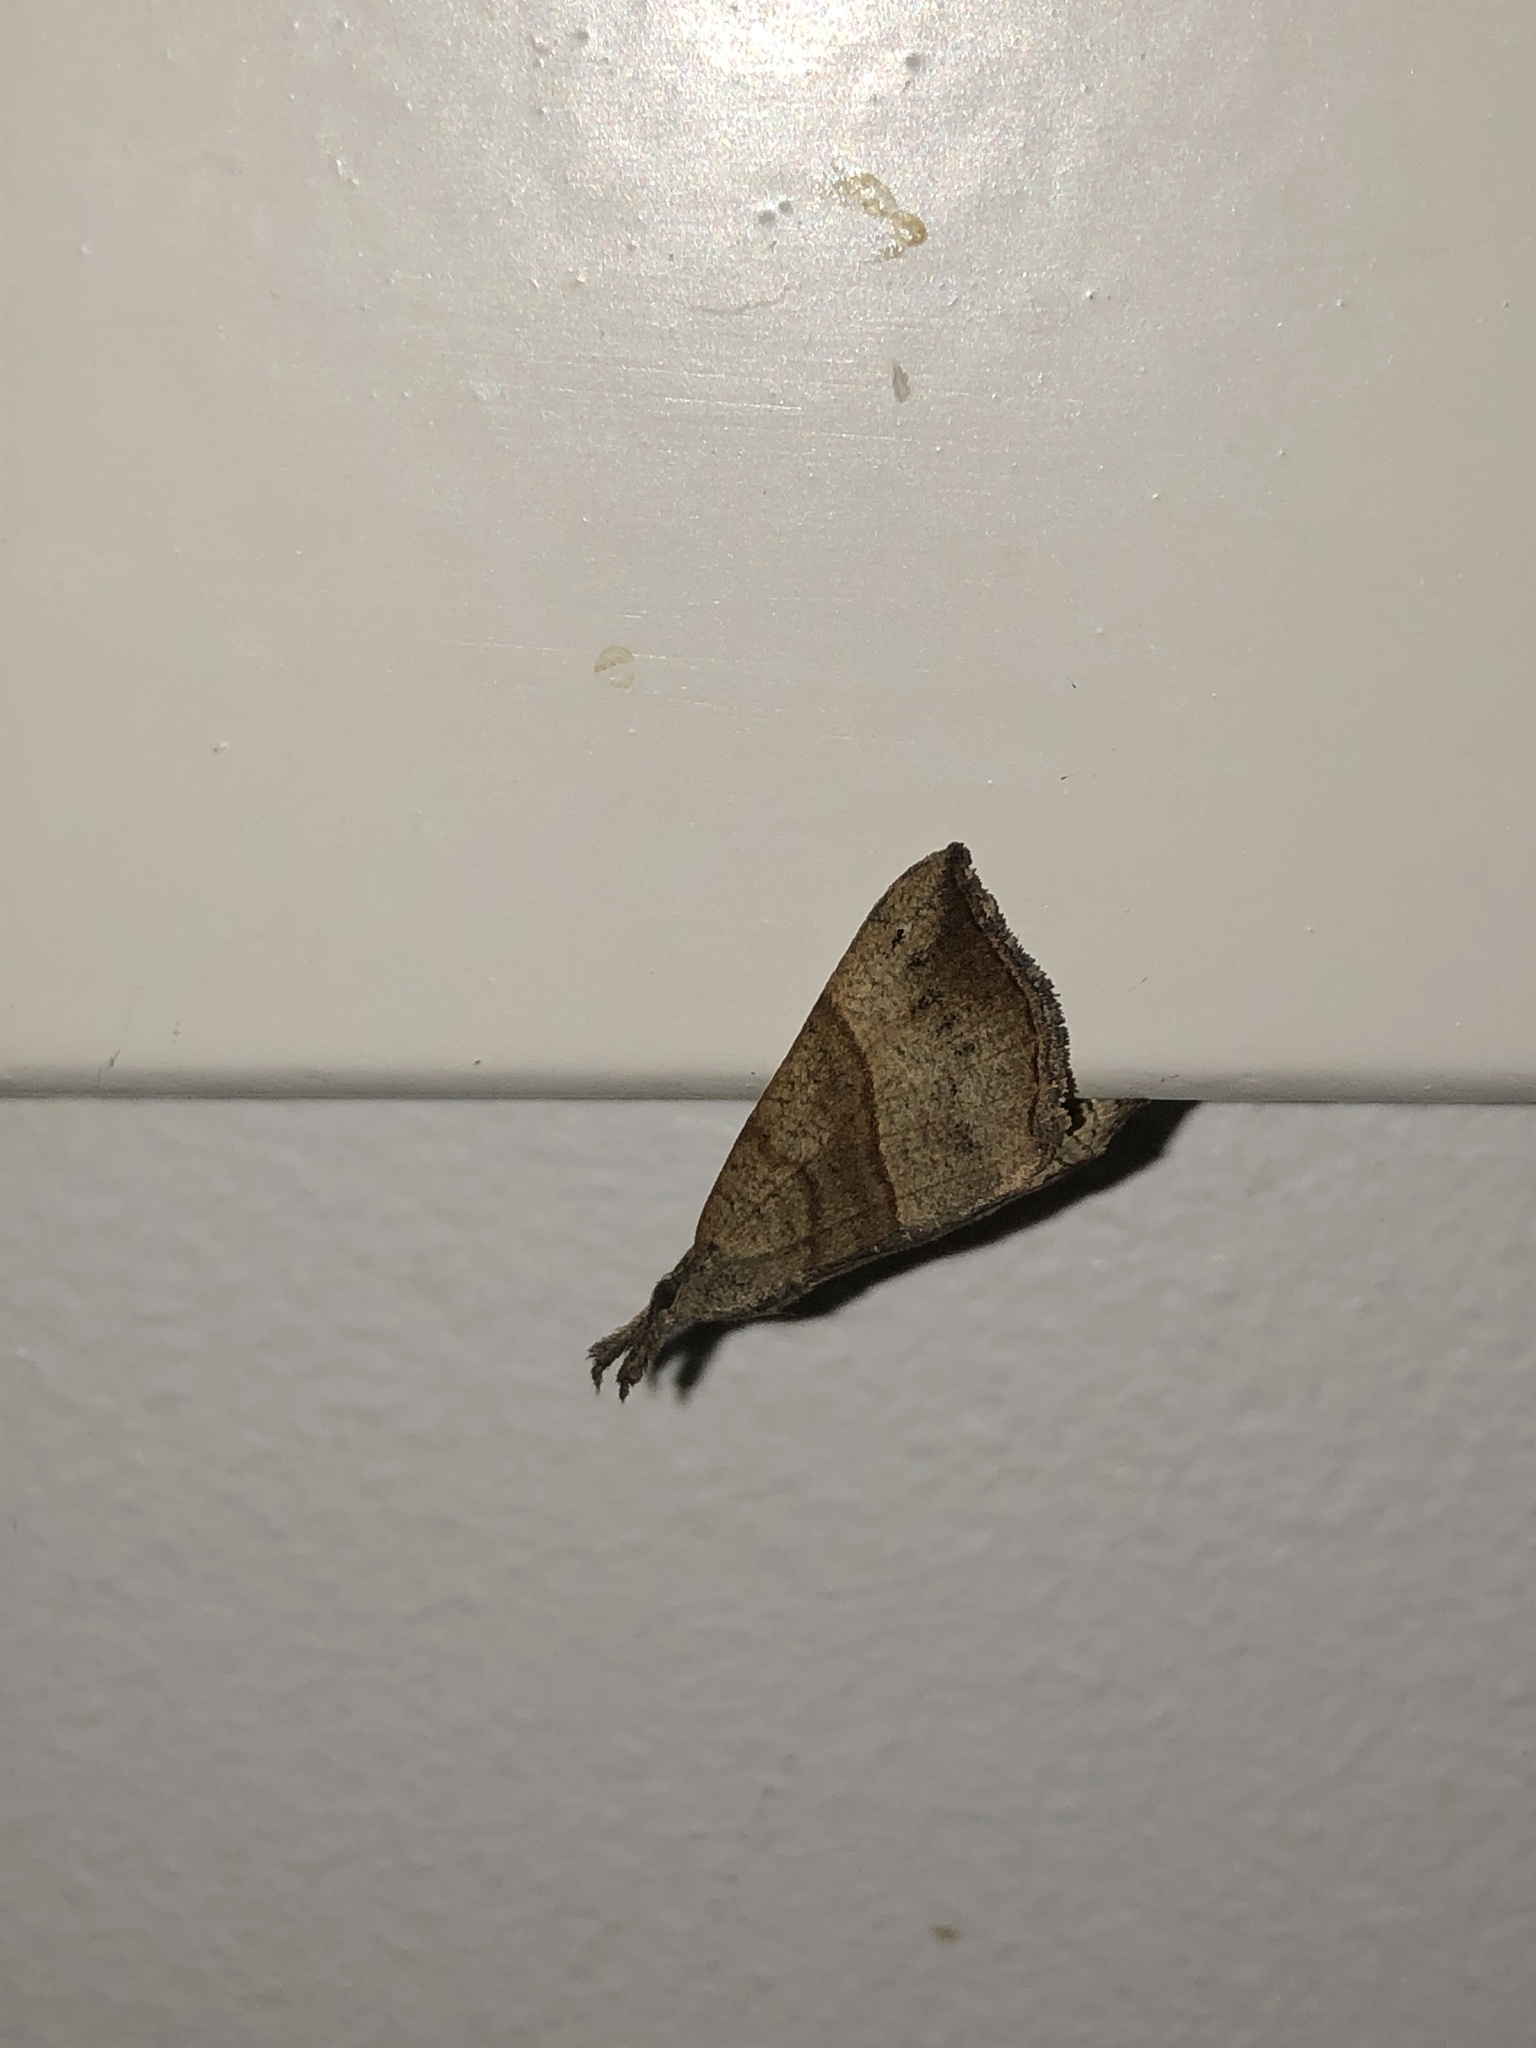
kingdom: Animalia
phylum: Arthropoda
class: Insecta
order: Lepidoptera
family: Erebidae
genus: Hypena
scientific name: Hypena proboscidalis
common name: Snout
